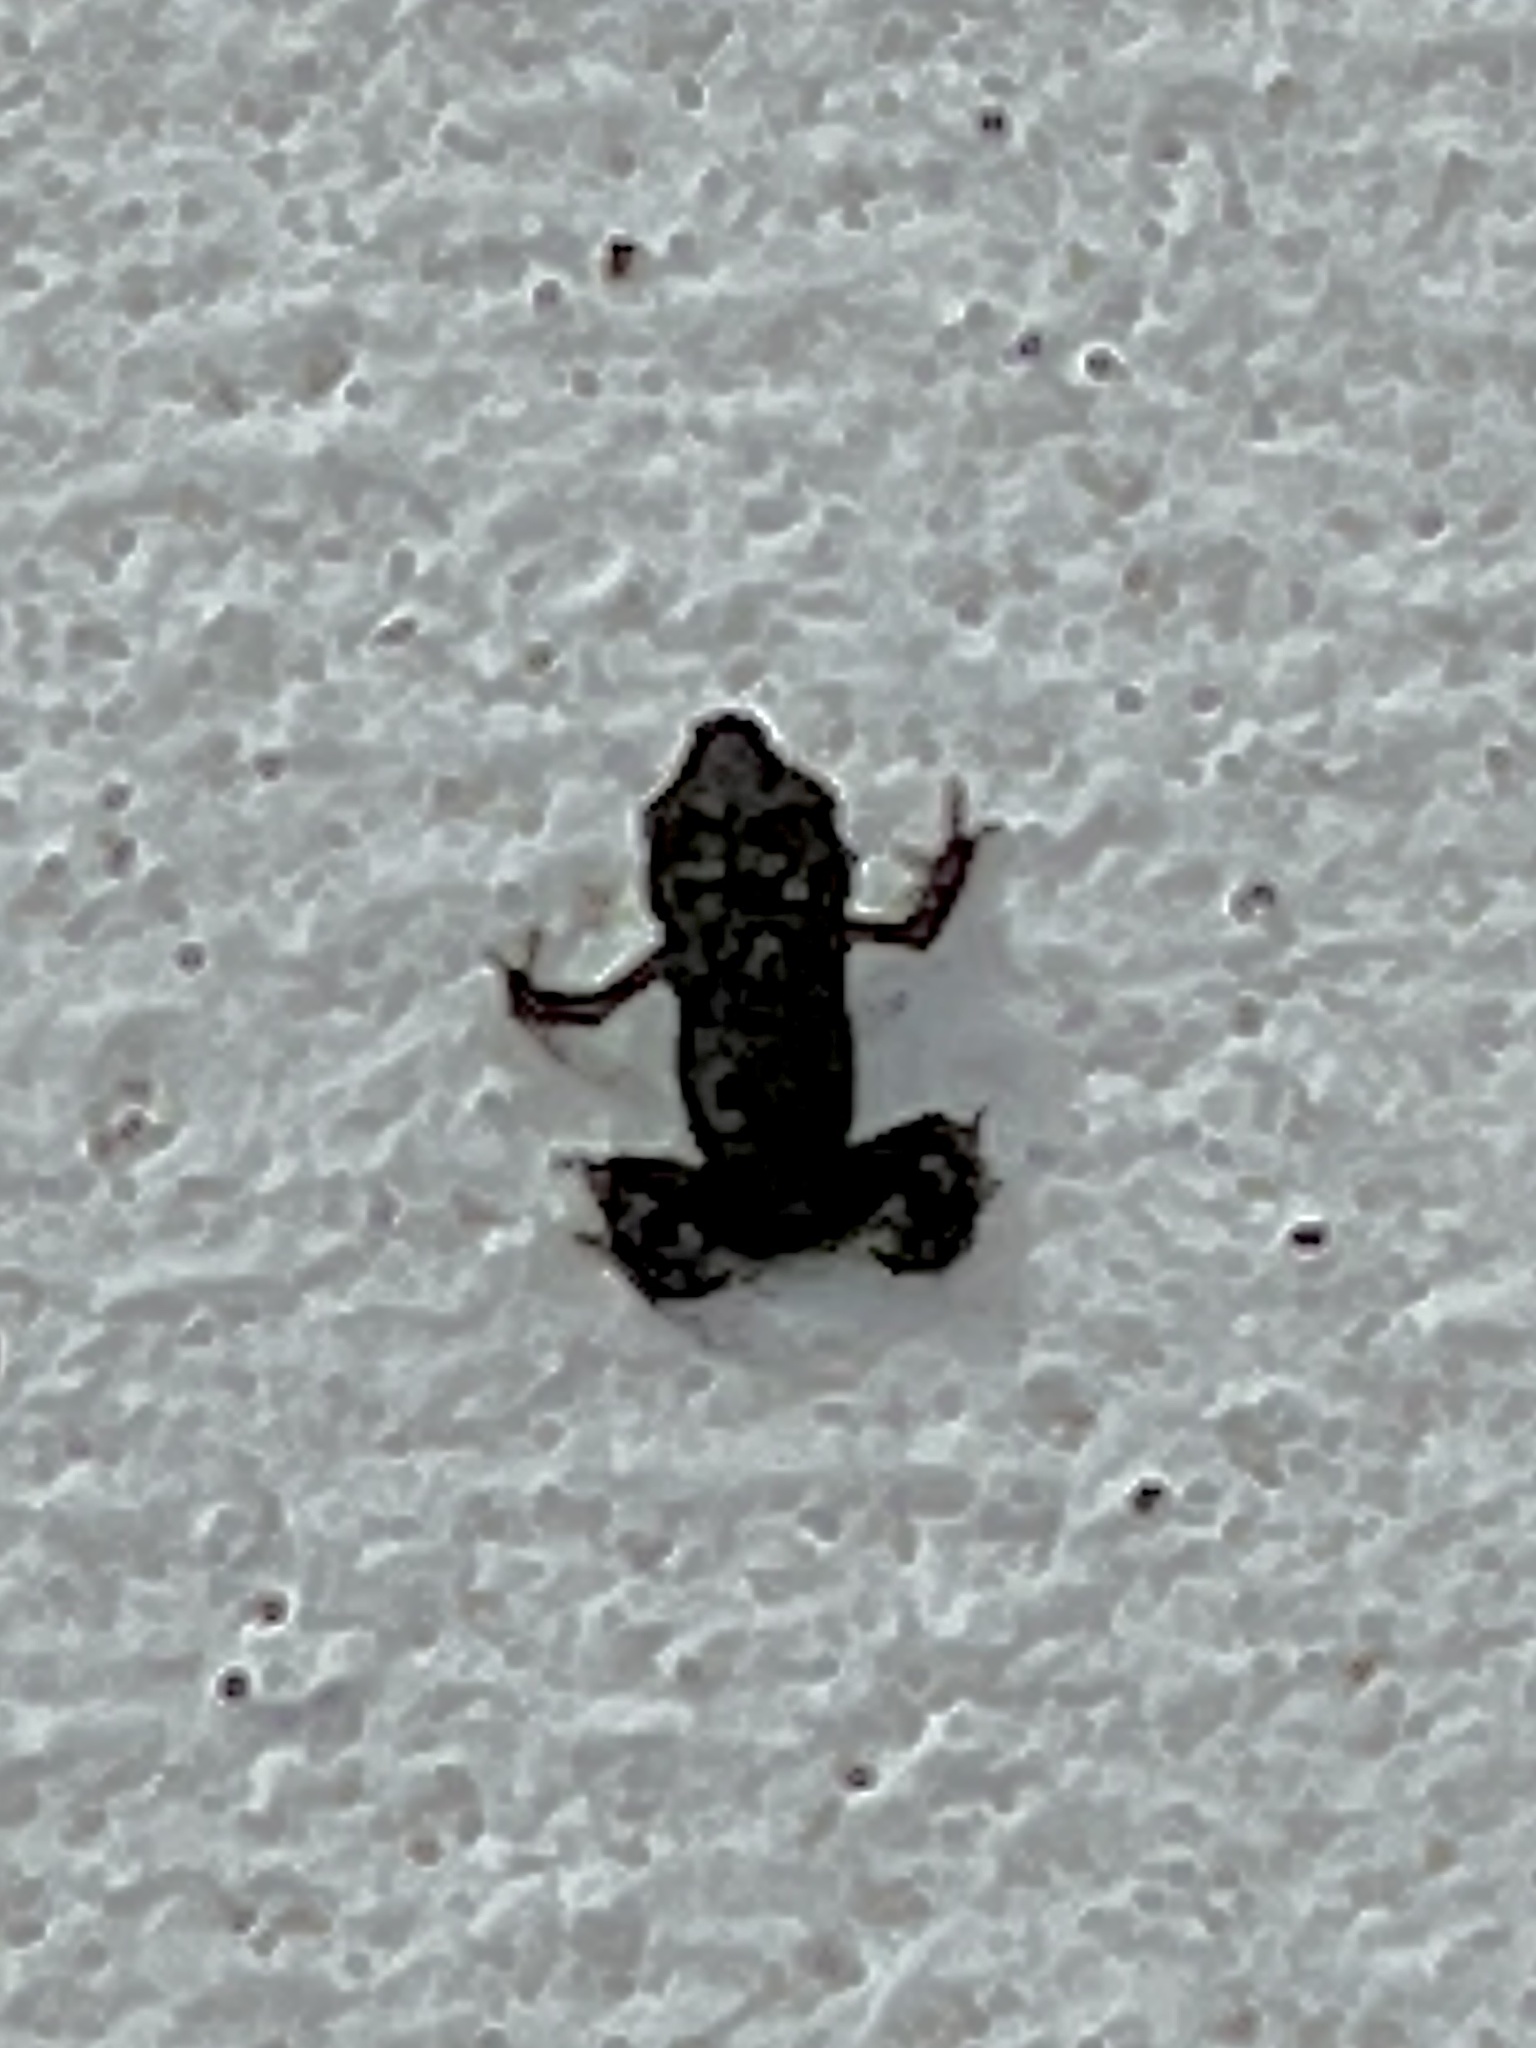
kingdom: Animalia
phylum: Chordata
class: Amphibia
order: Anura
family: Bufonidae
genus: Incilius
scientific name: Incilius nebulifer
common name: Gulf coast toad
